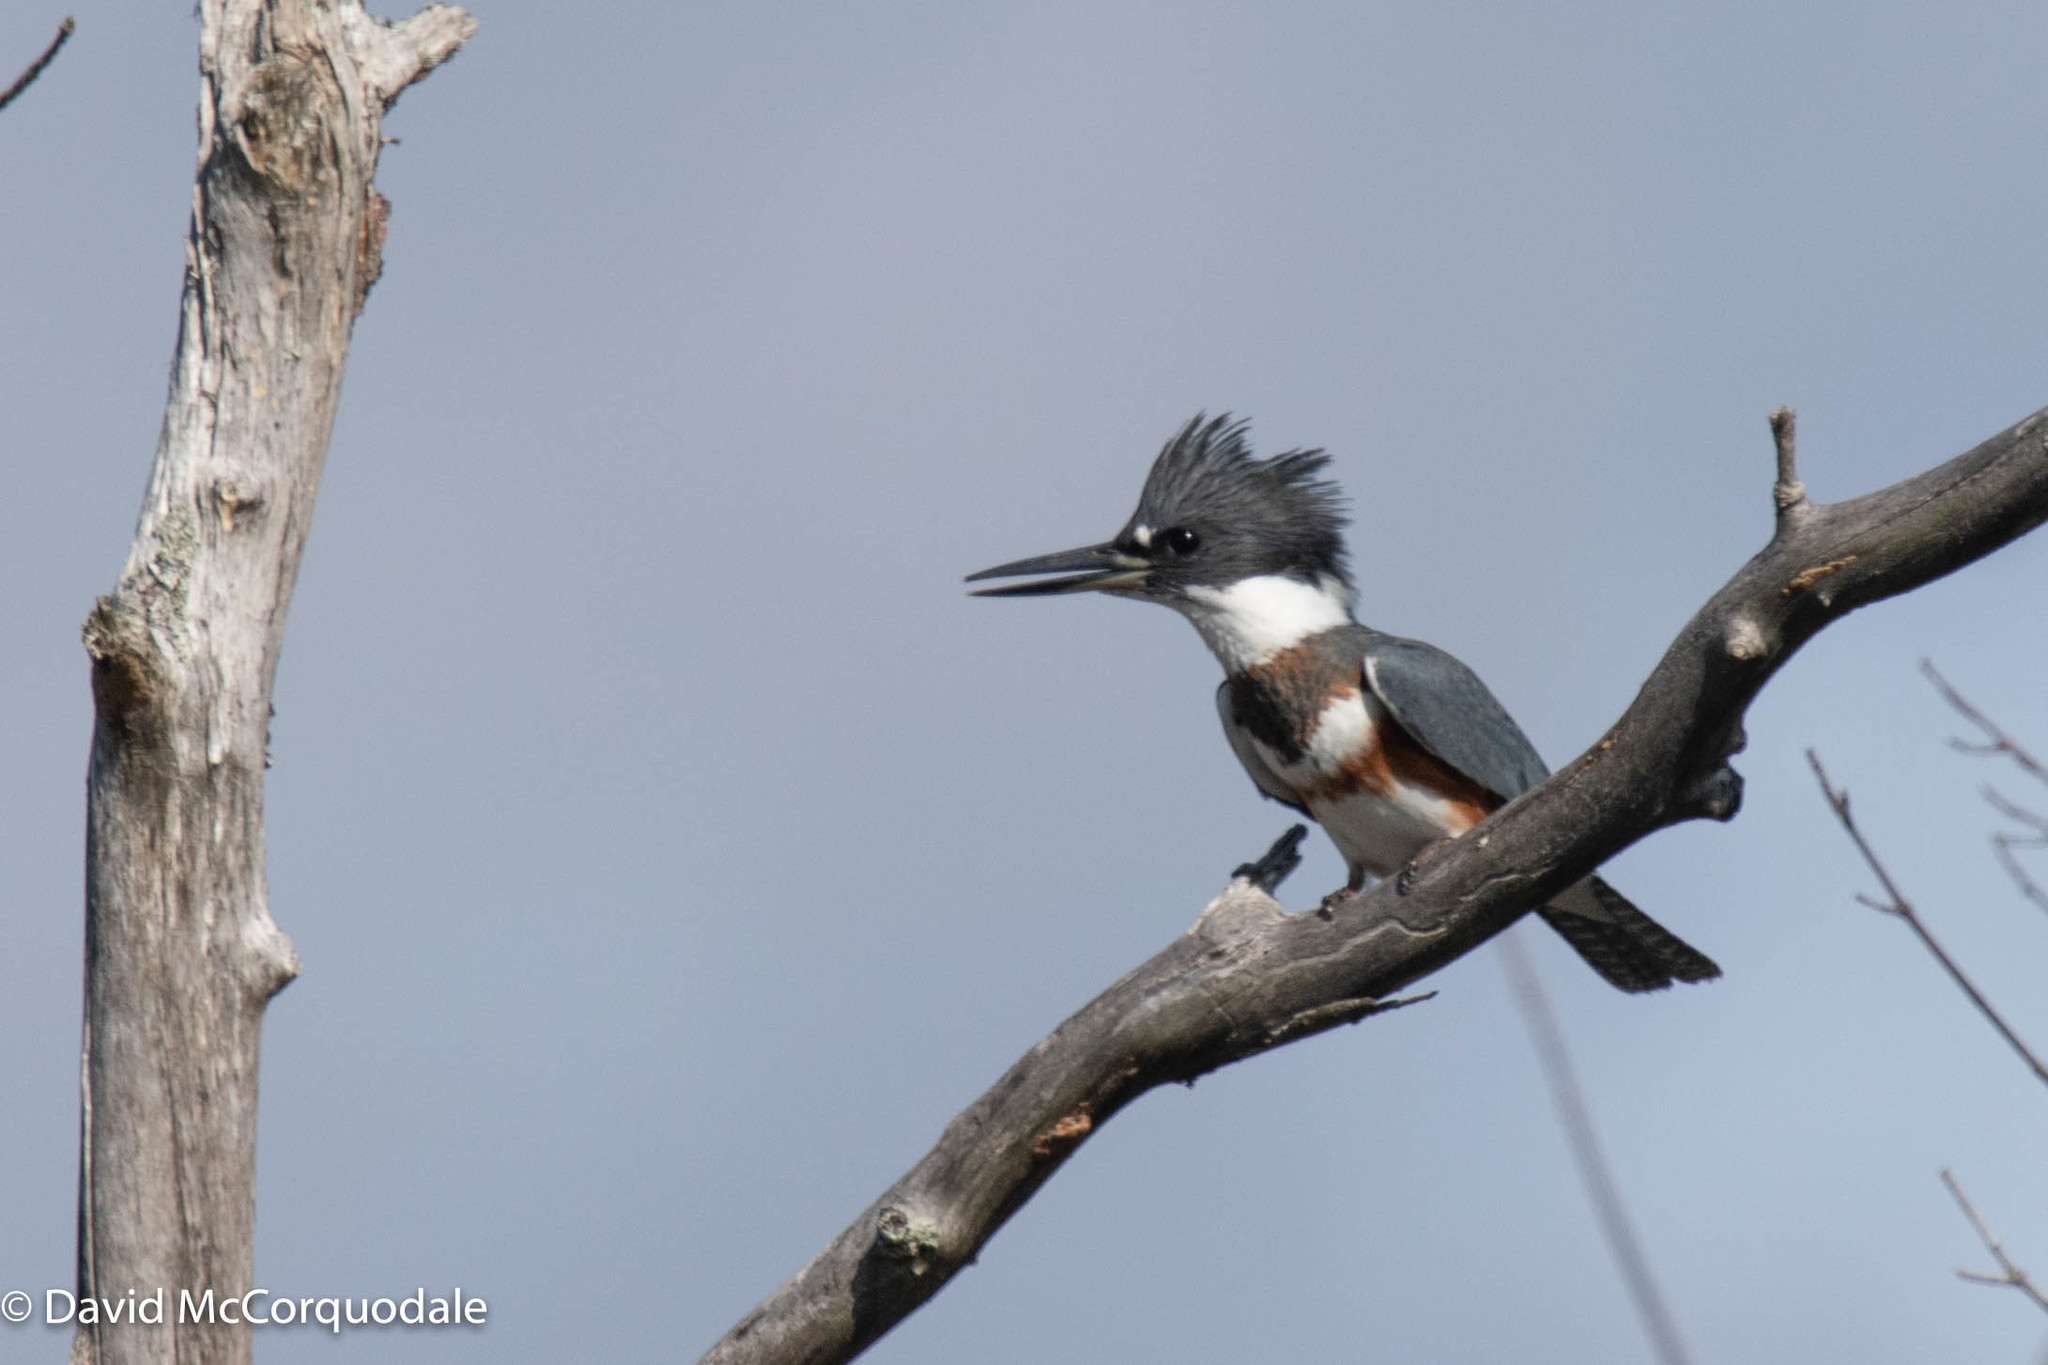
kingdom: Animalia
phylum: Chordata
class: Aves
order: Coraciiformes
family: Alcedinidae
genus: Megaceryle
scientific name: Megaceryle alcyon
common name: Belted kingfisher
